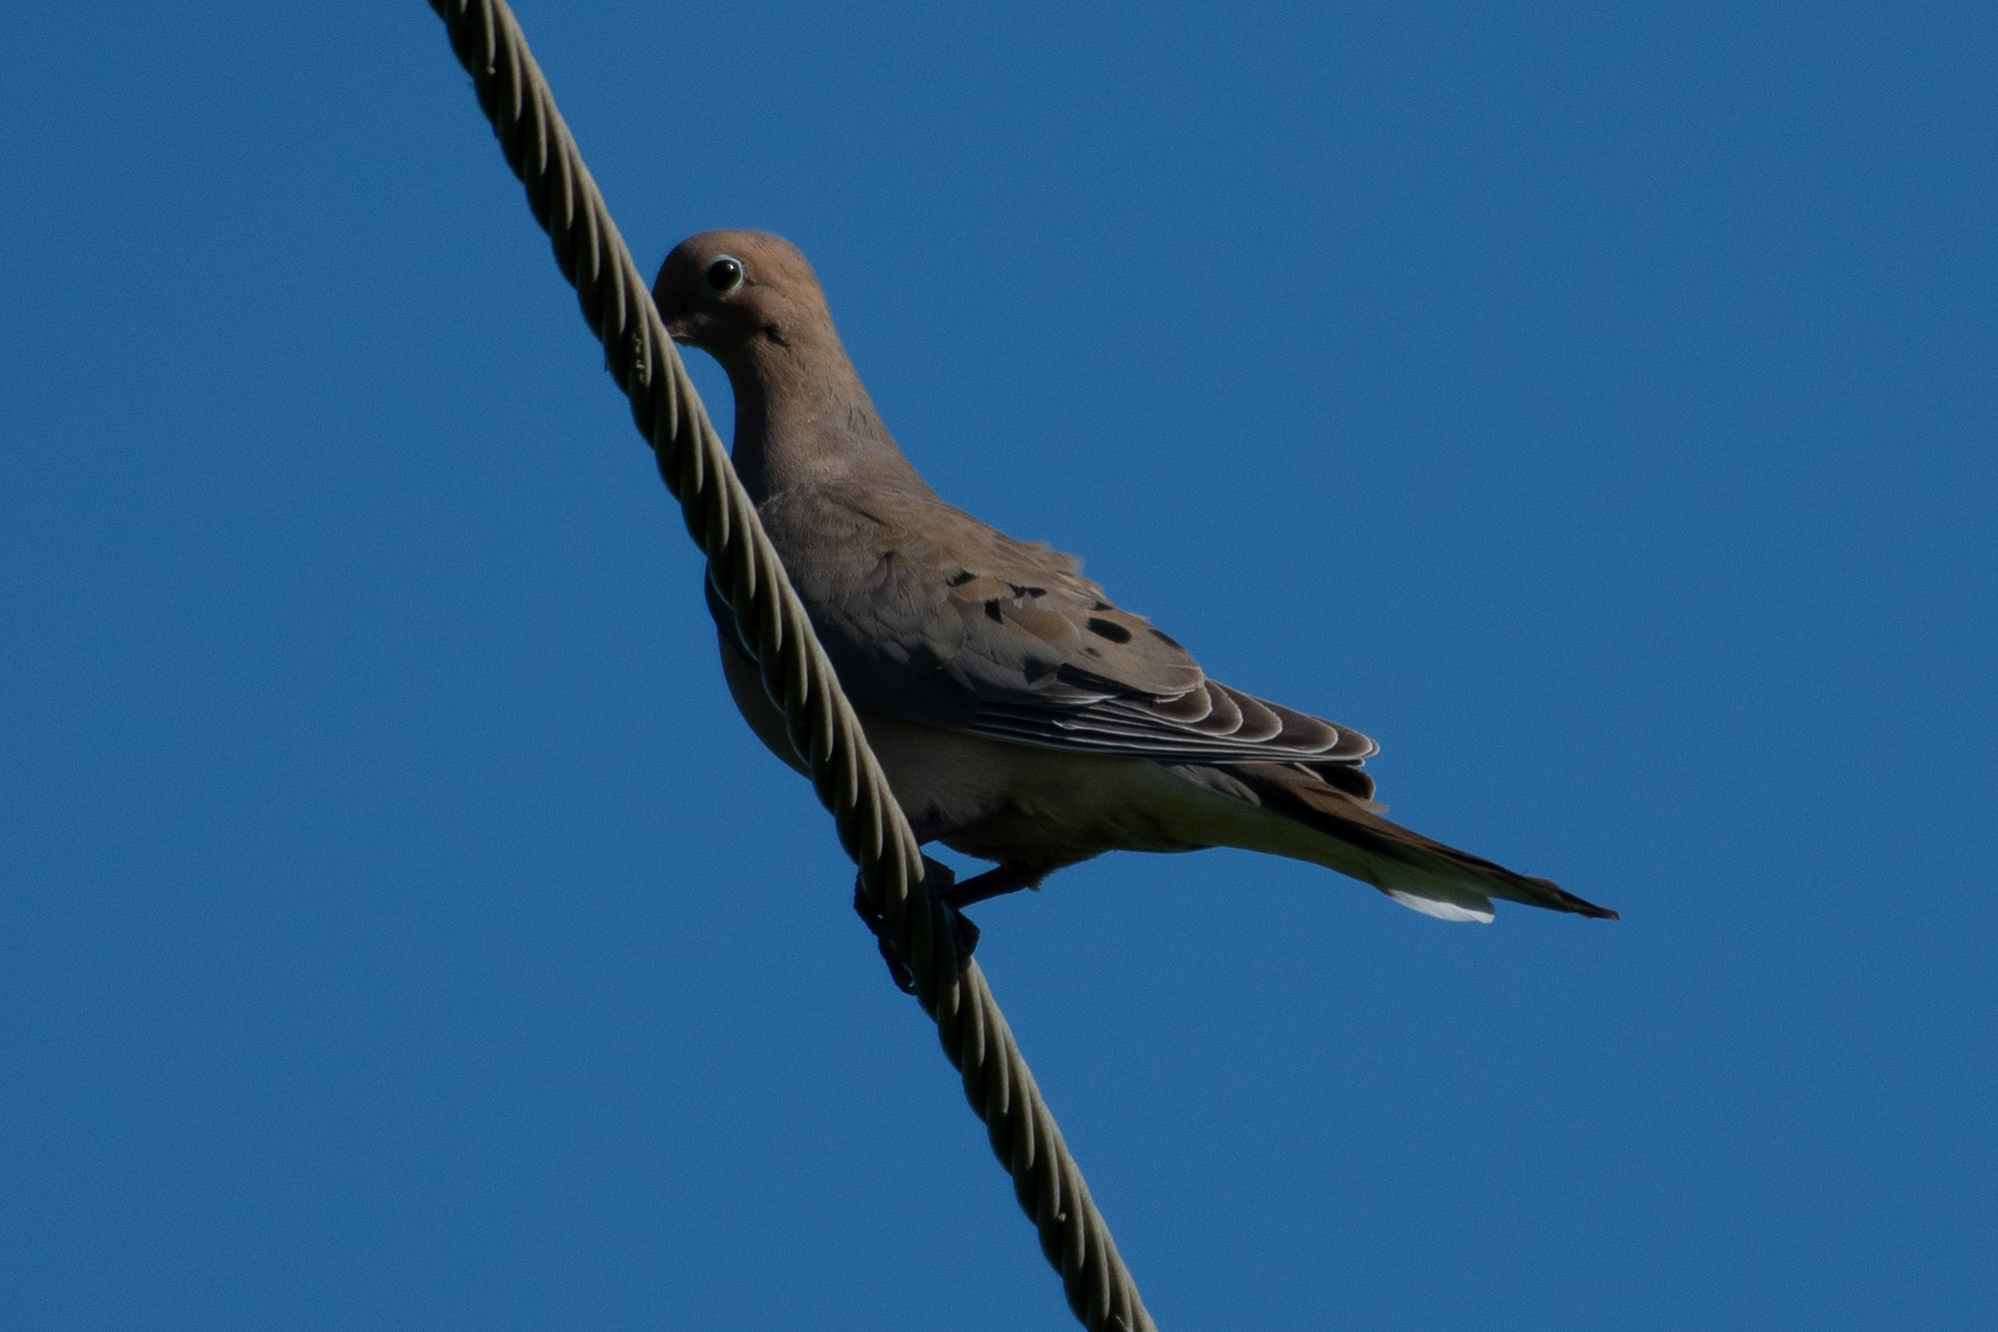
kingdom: Animalia
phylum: Chordata
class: Aves
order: Columbiformes
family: Columbidae
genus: Zenaida
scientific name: Zenaida macroura
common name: Mourning dove
